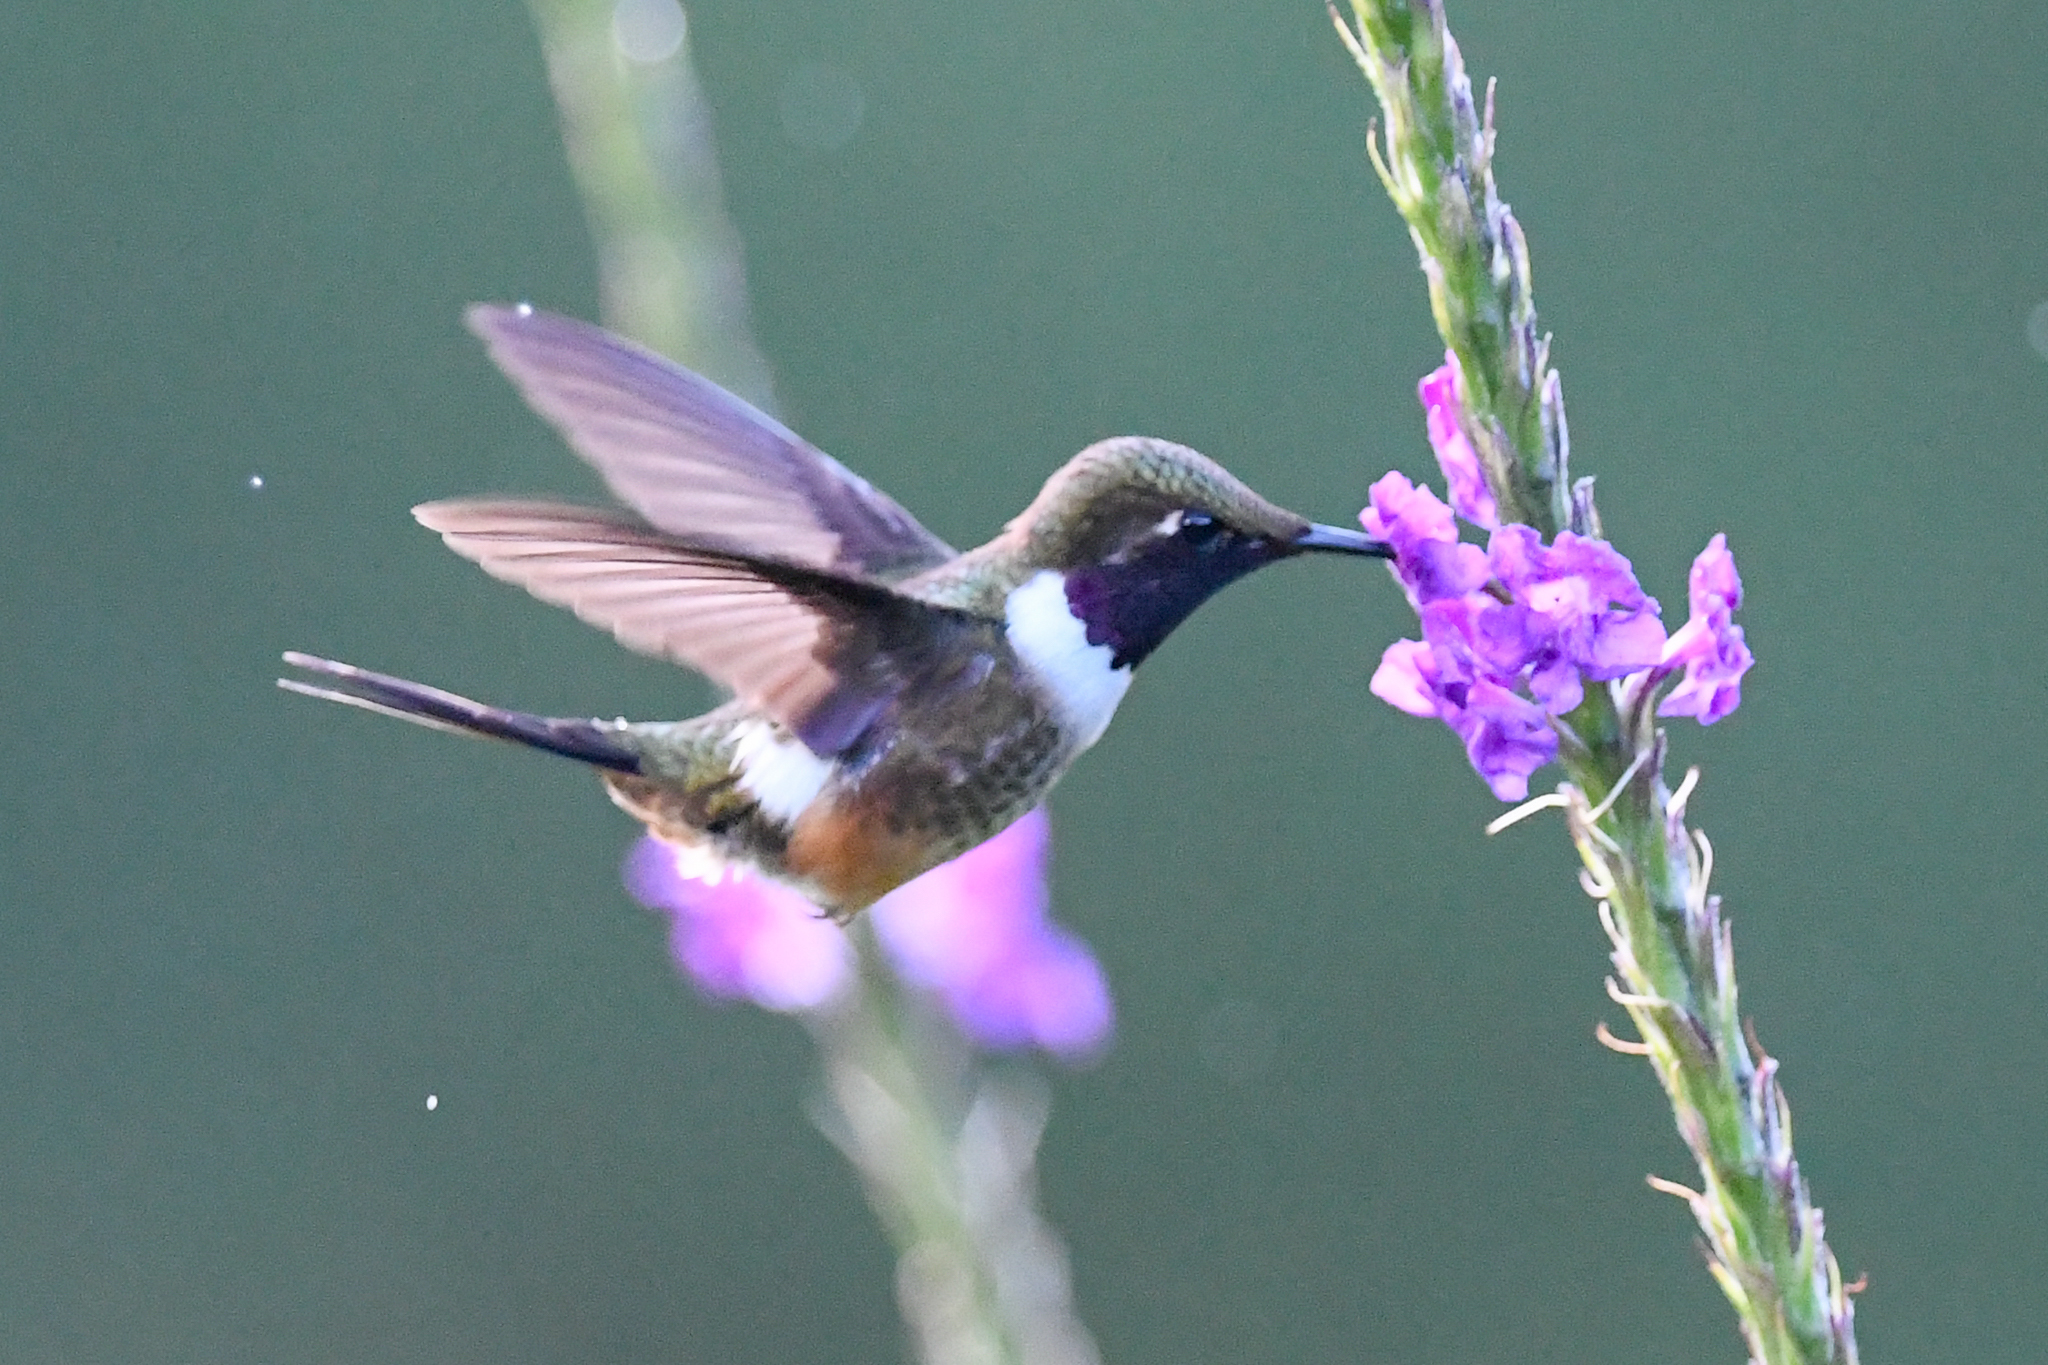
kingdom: Animalia
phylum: Chordata
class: Aves
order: Apodiformes
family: Trochilidae
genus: Calliphlox
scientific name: Calliphlox bryantae
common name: Magenta-throated woodstar
